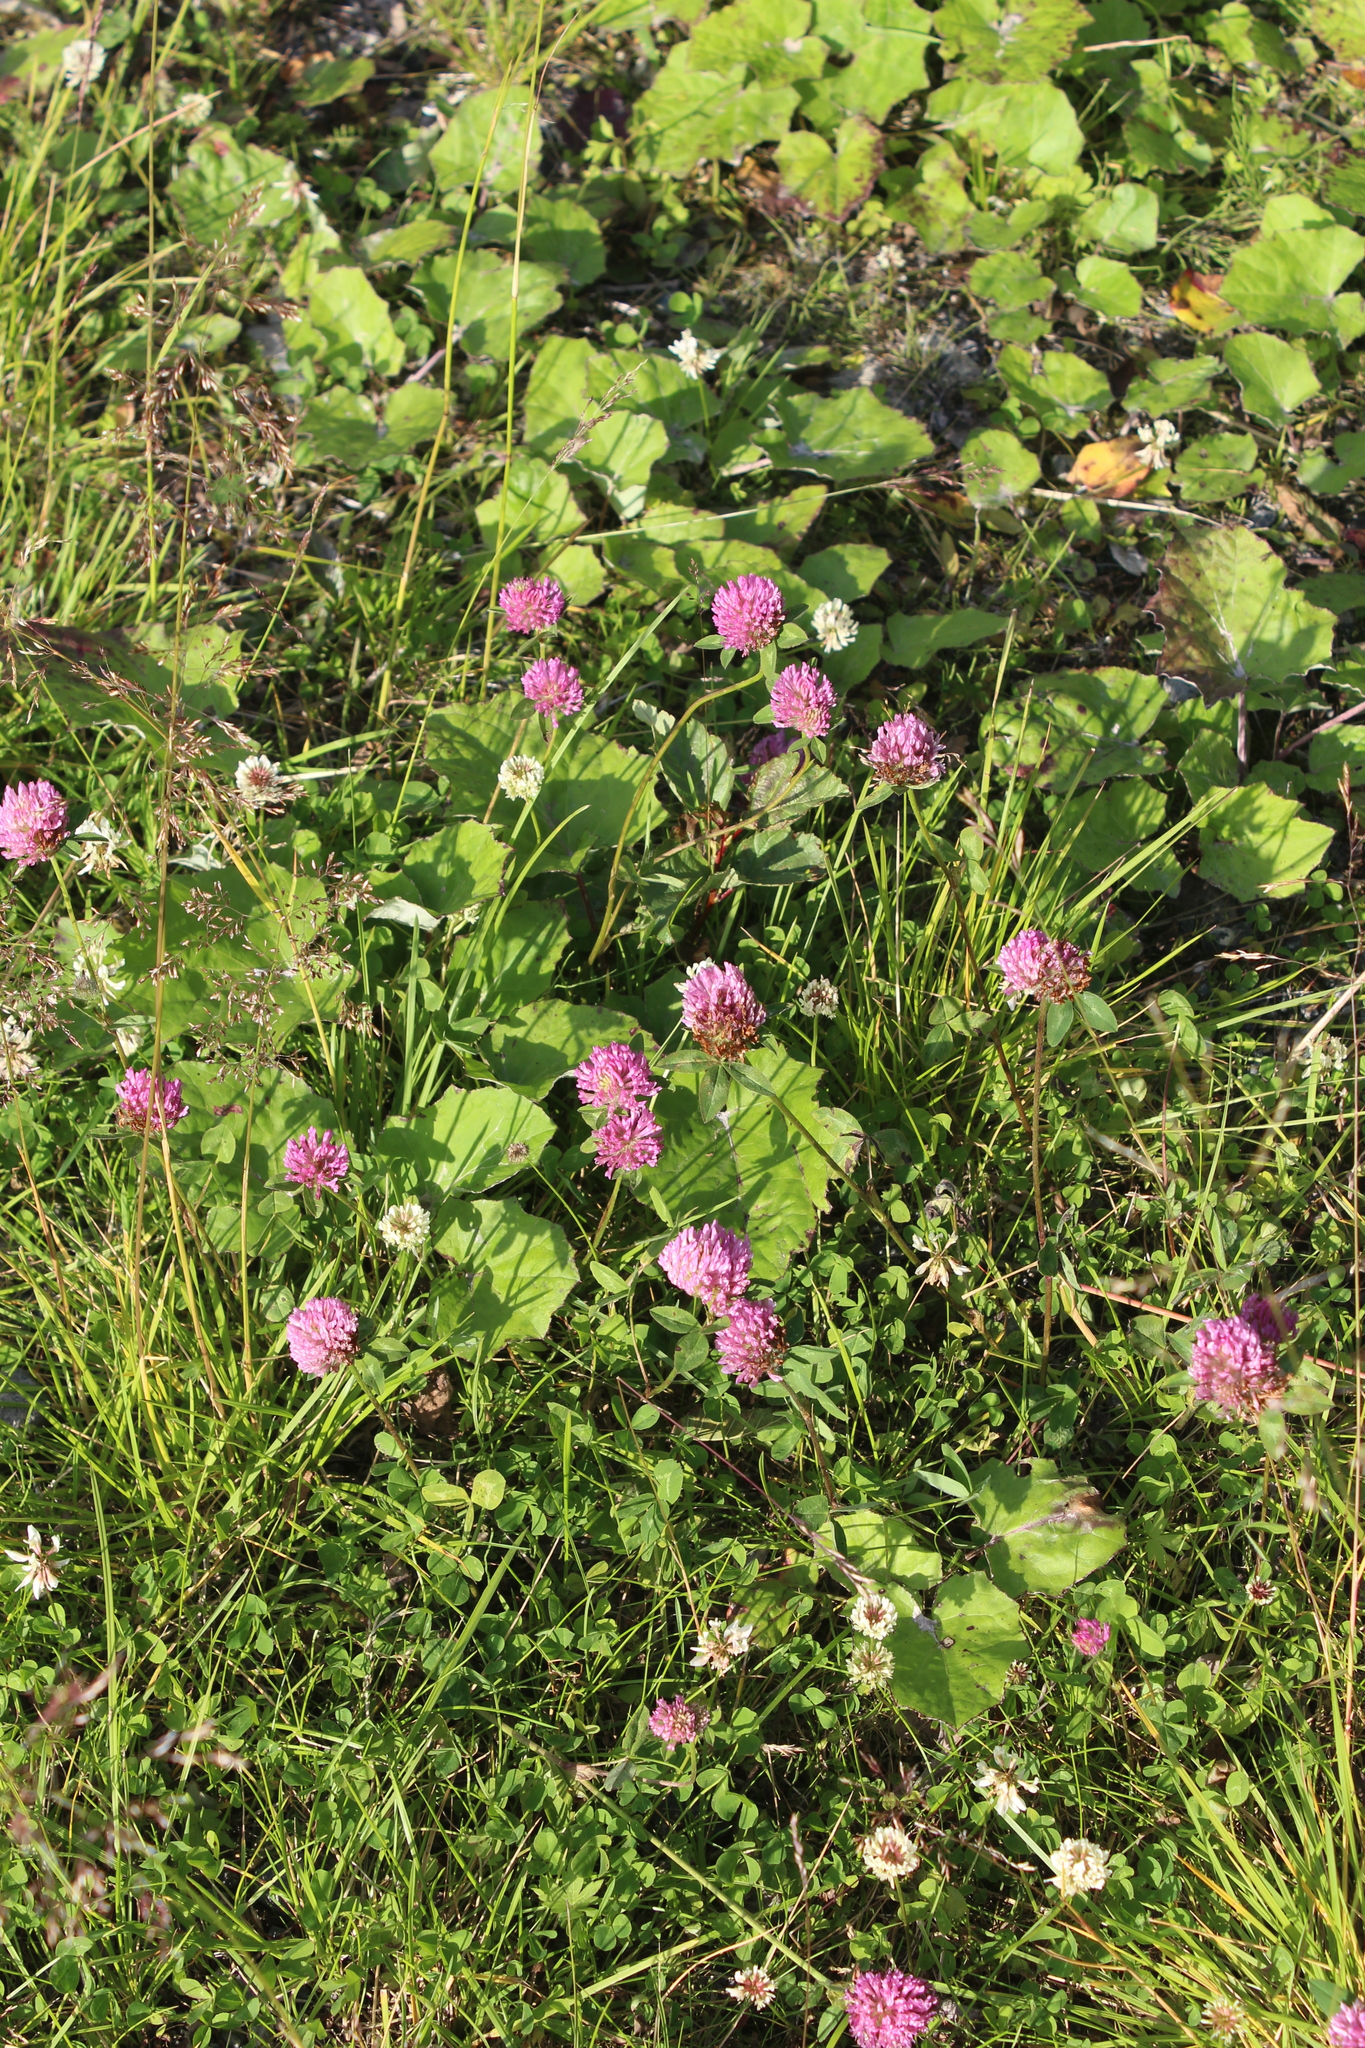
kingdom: Plantae
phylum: Tracheophyta
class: Magnoliopsida
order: Fabales
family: Fabaceae
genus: Trifolium
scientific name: Trifolium pratense
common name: Red clover
